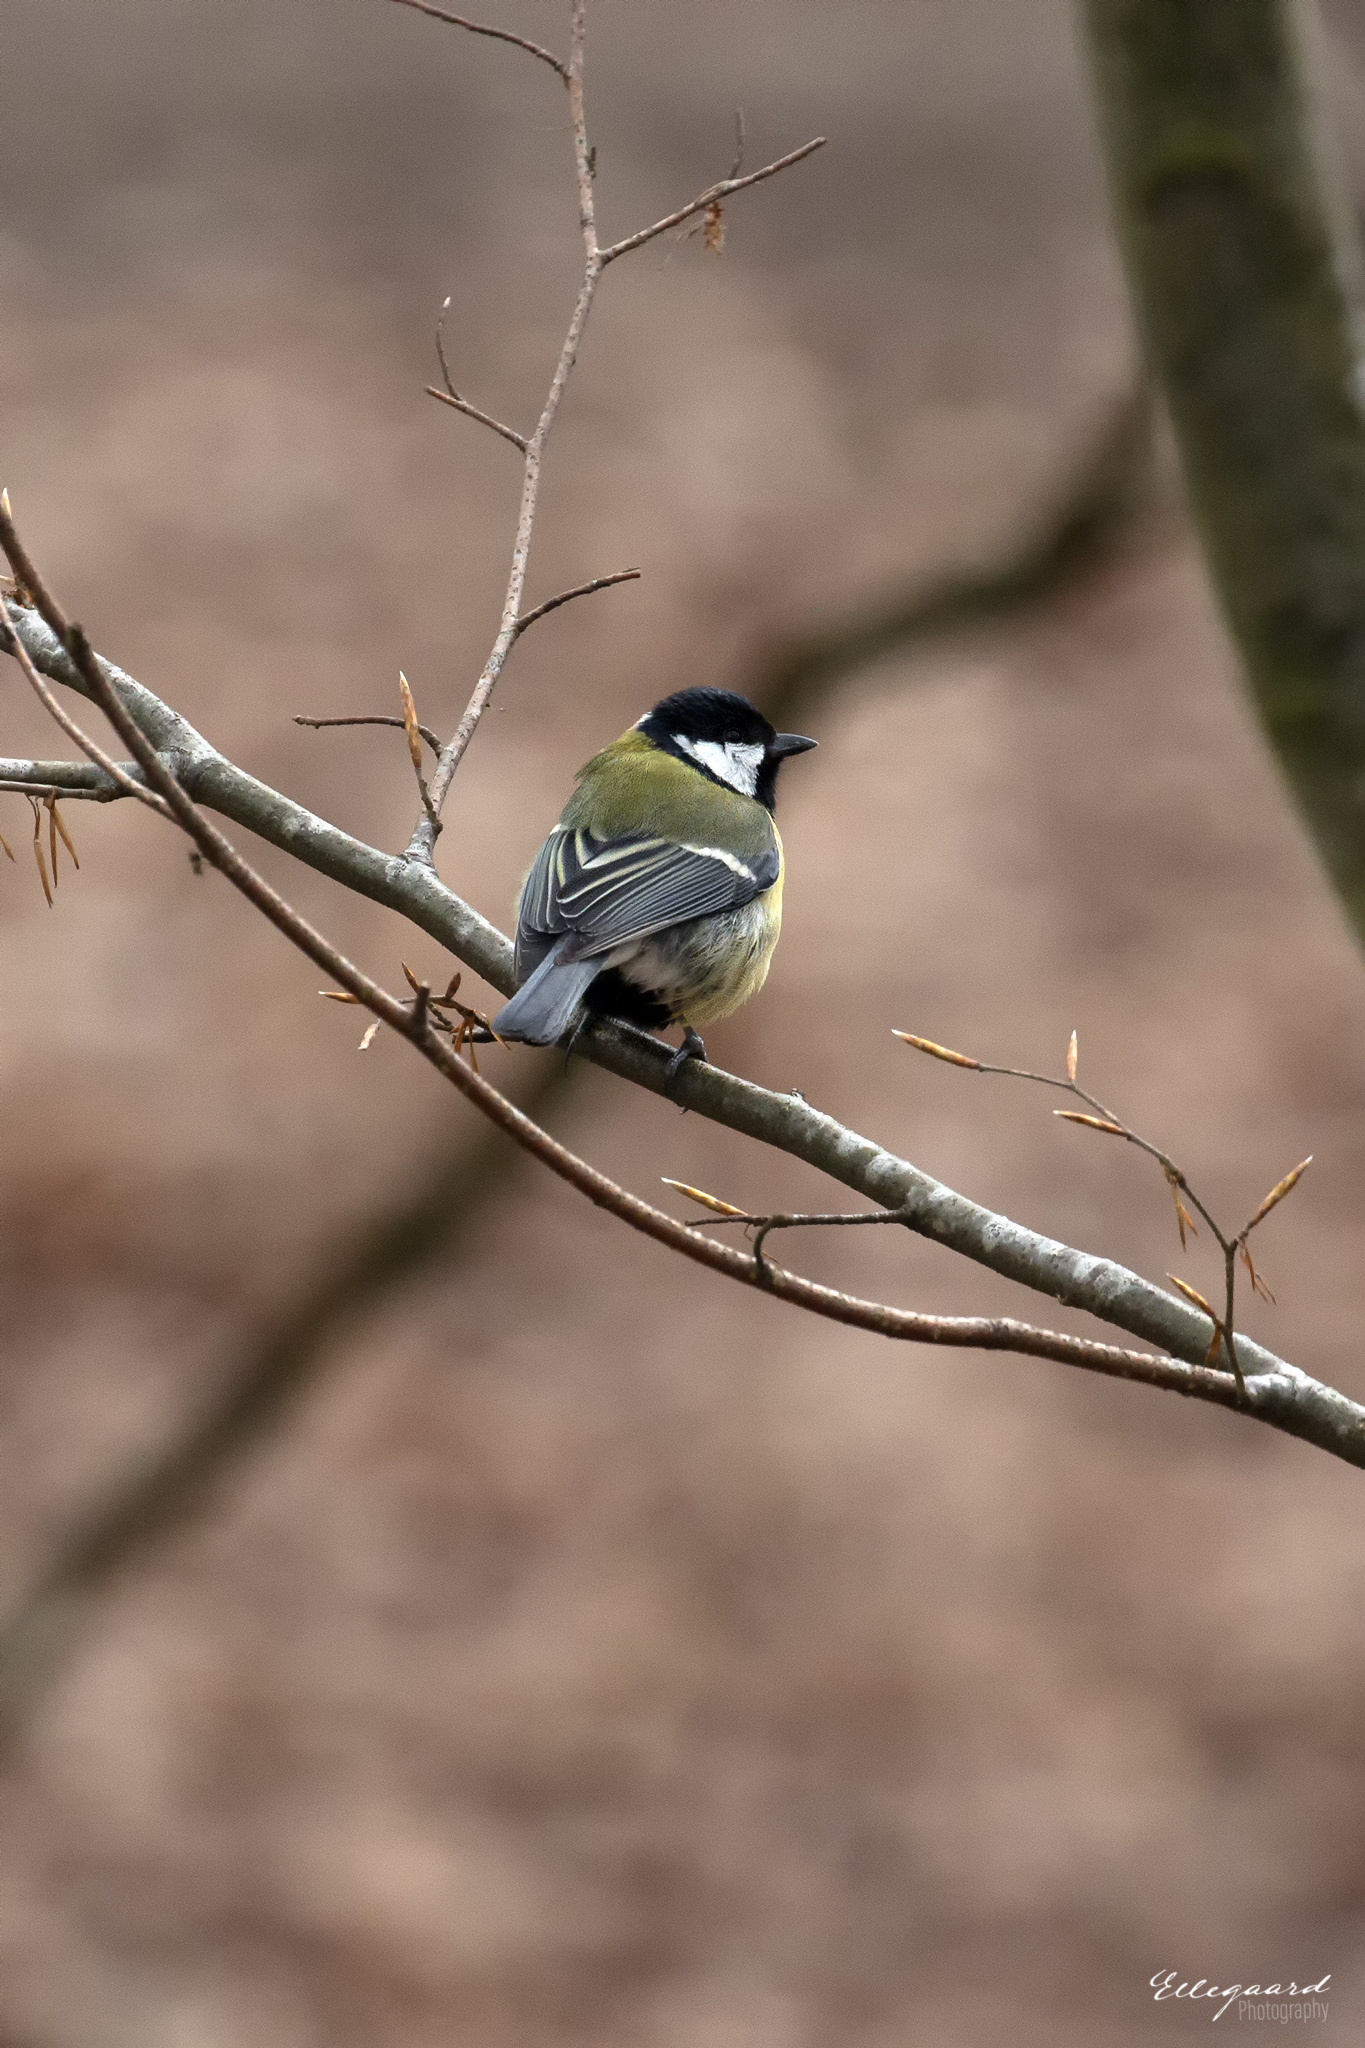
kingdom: Animalia
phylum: Chordata
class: Aves
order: Passeriformes
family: Paridae
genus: Parus
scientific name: Parus major
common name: Great tit
